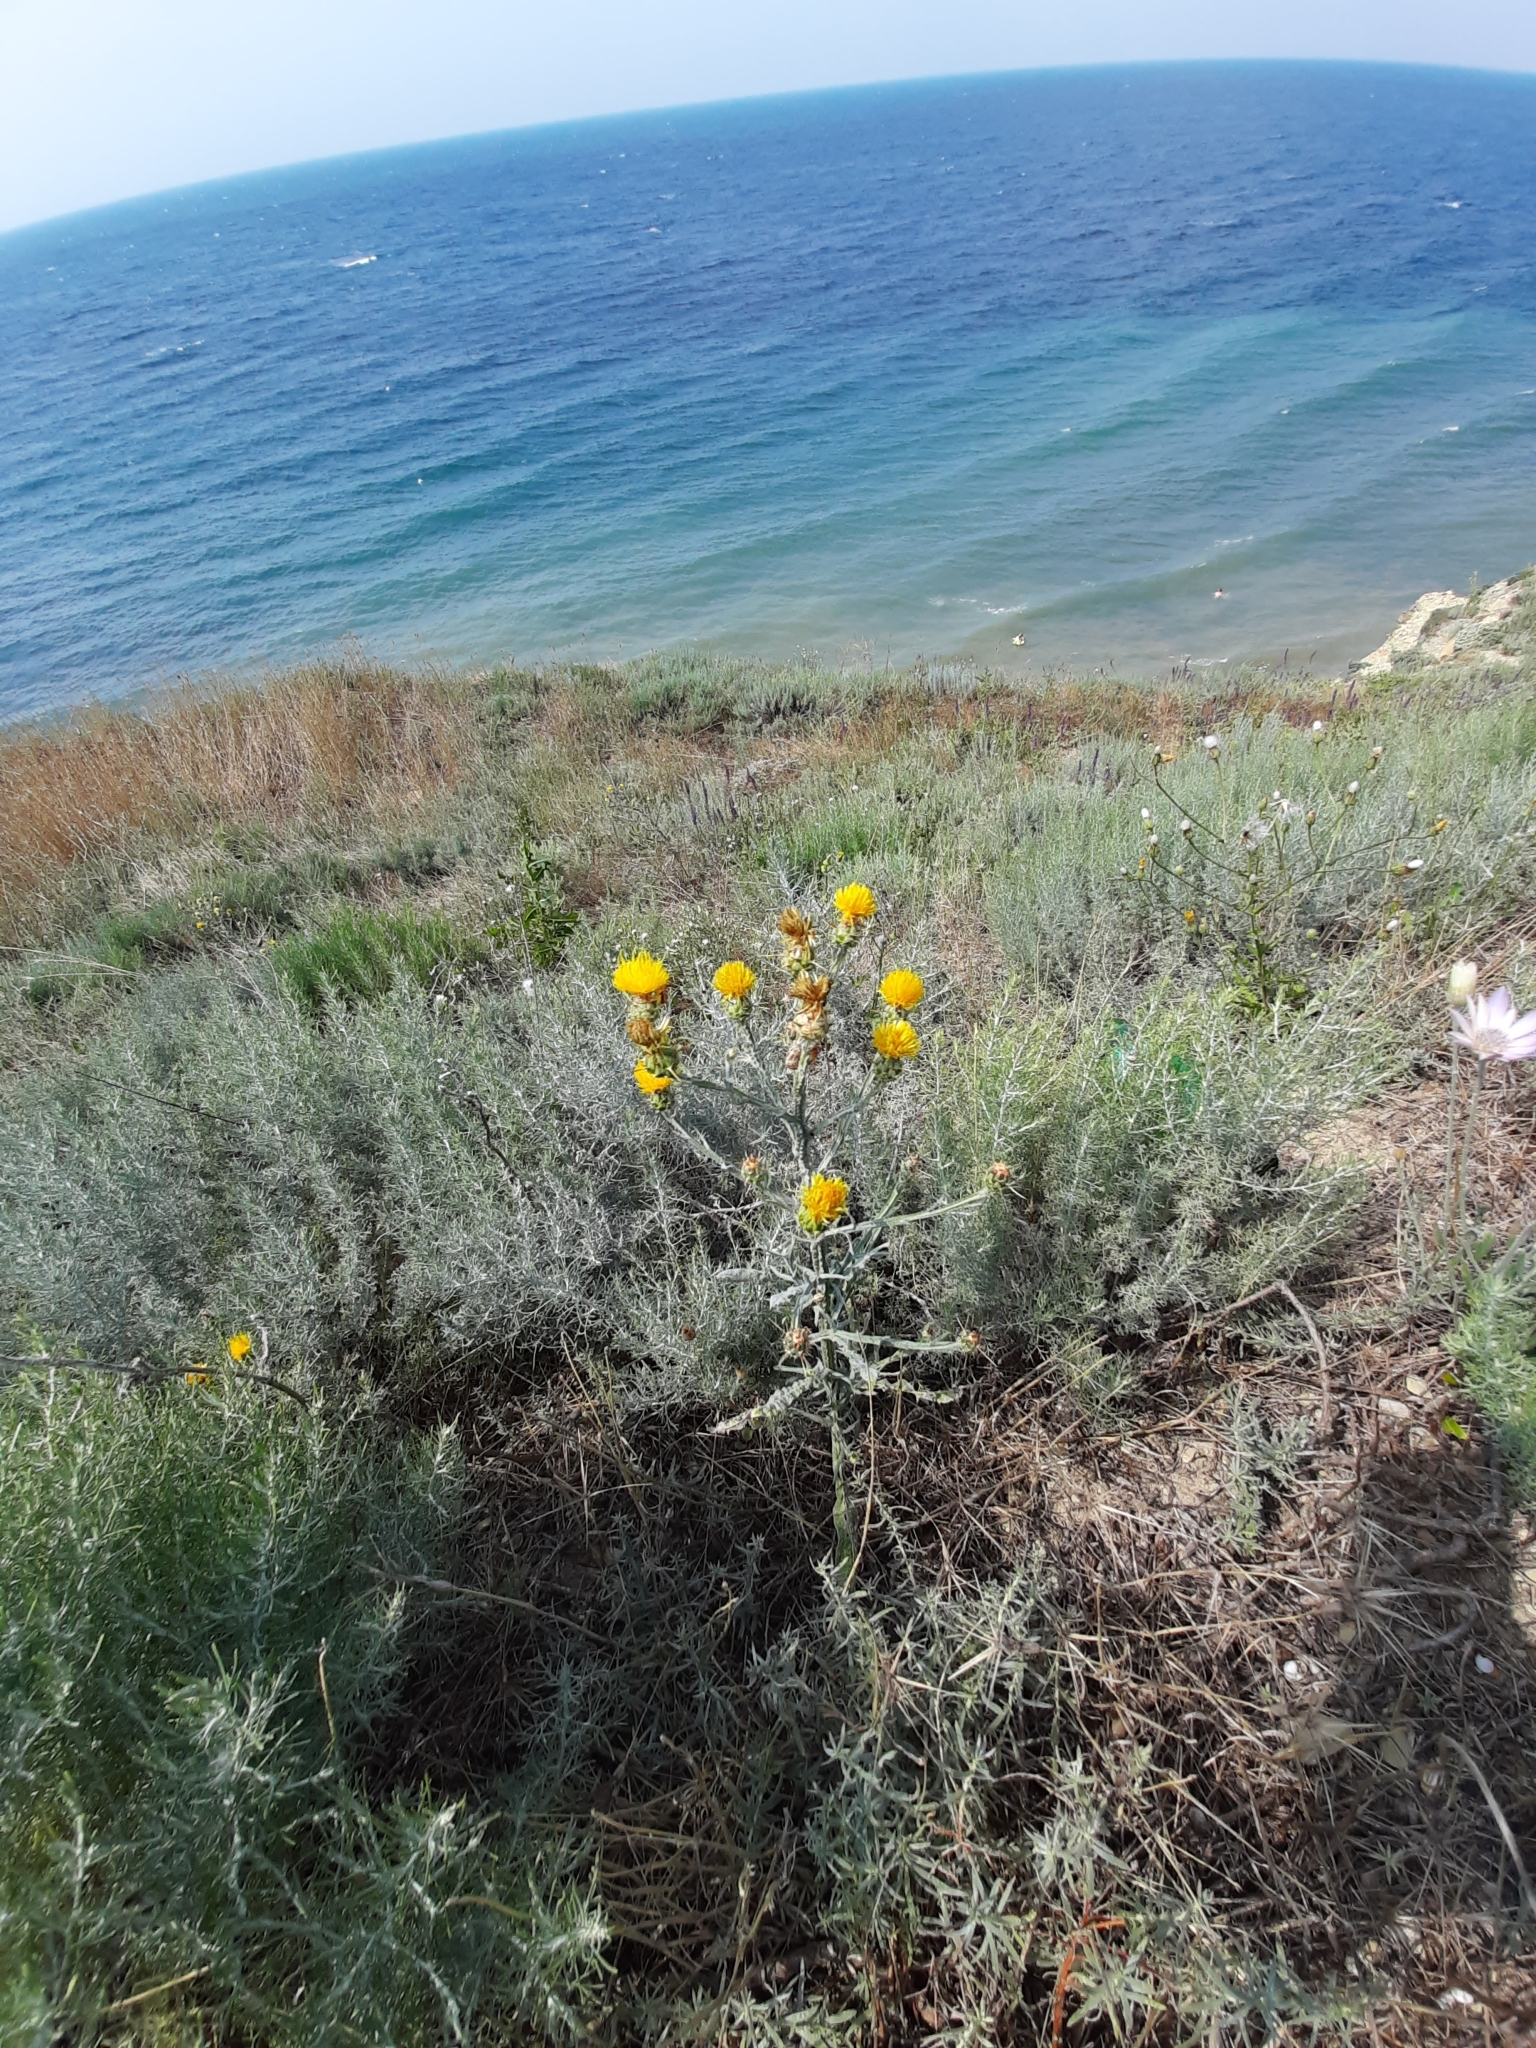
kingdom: Plantae
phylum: Tracheophyta
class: Magnoliopsida
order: Asterales
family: Asteraceae
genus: Centaurea
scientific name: Centaurea solstitialis
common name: Yellow star-thistle
